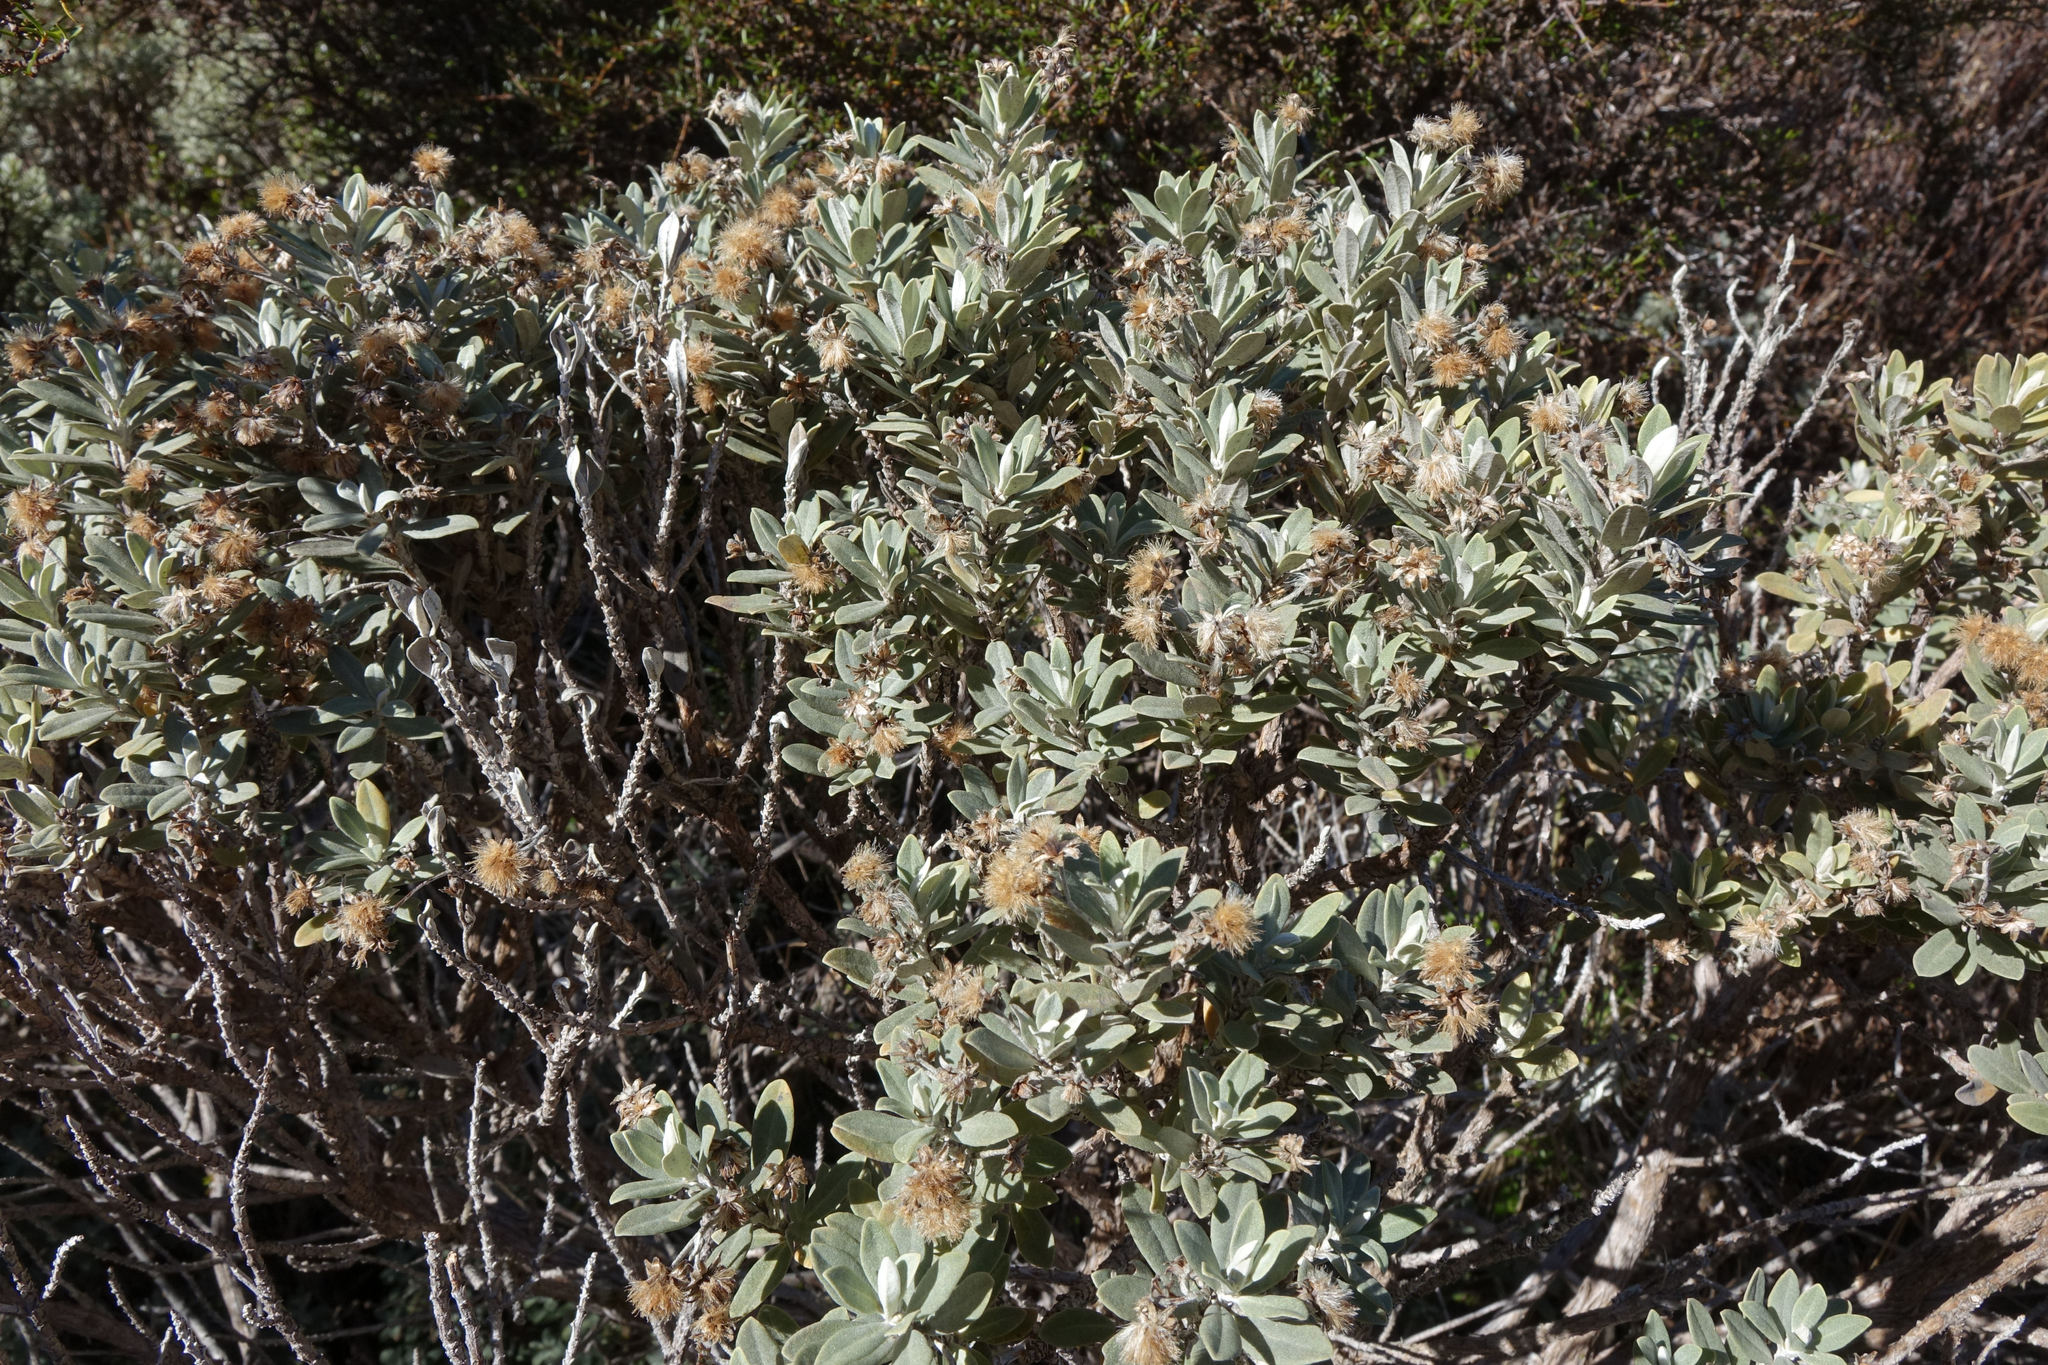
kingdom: Plantae
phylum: Tracheophyta
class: Magnoliopsida
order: Asterales
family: Asteraceae
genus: Olearia
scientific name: Olearia moschata
